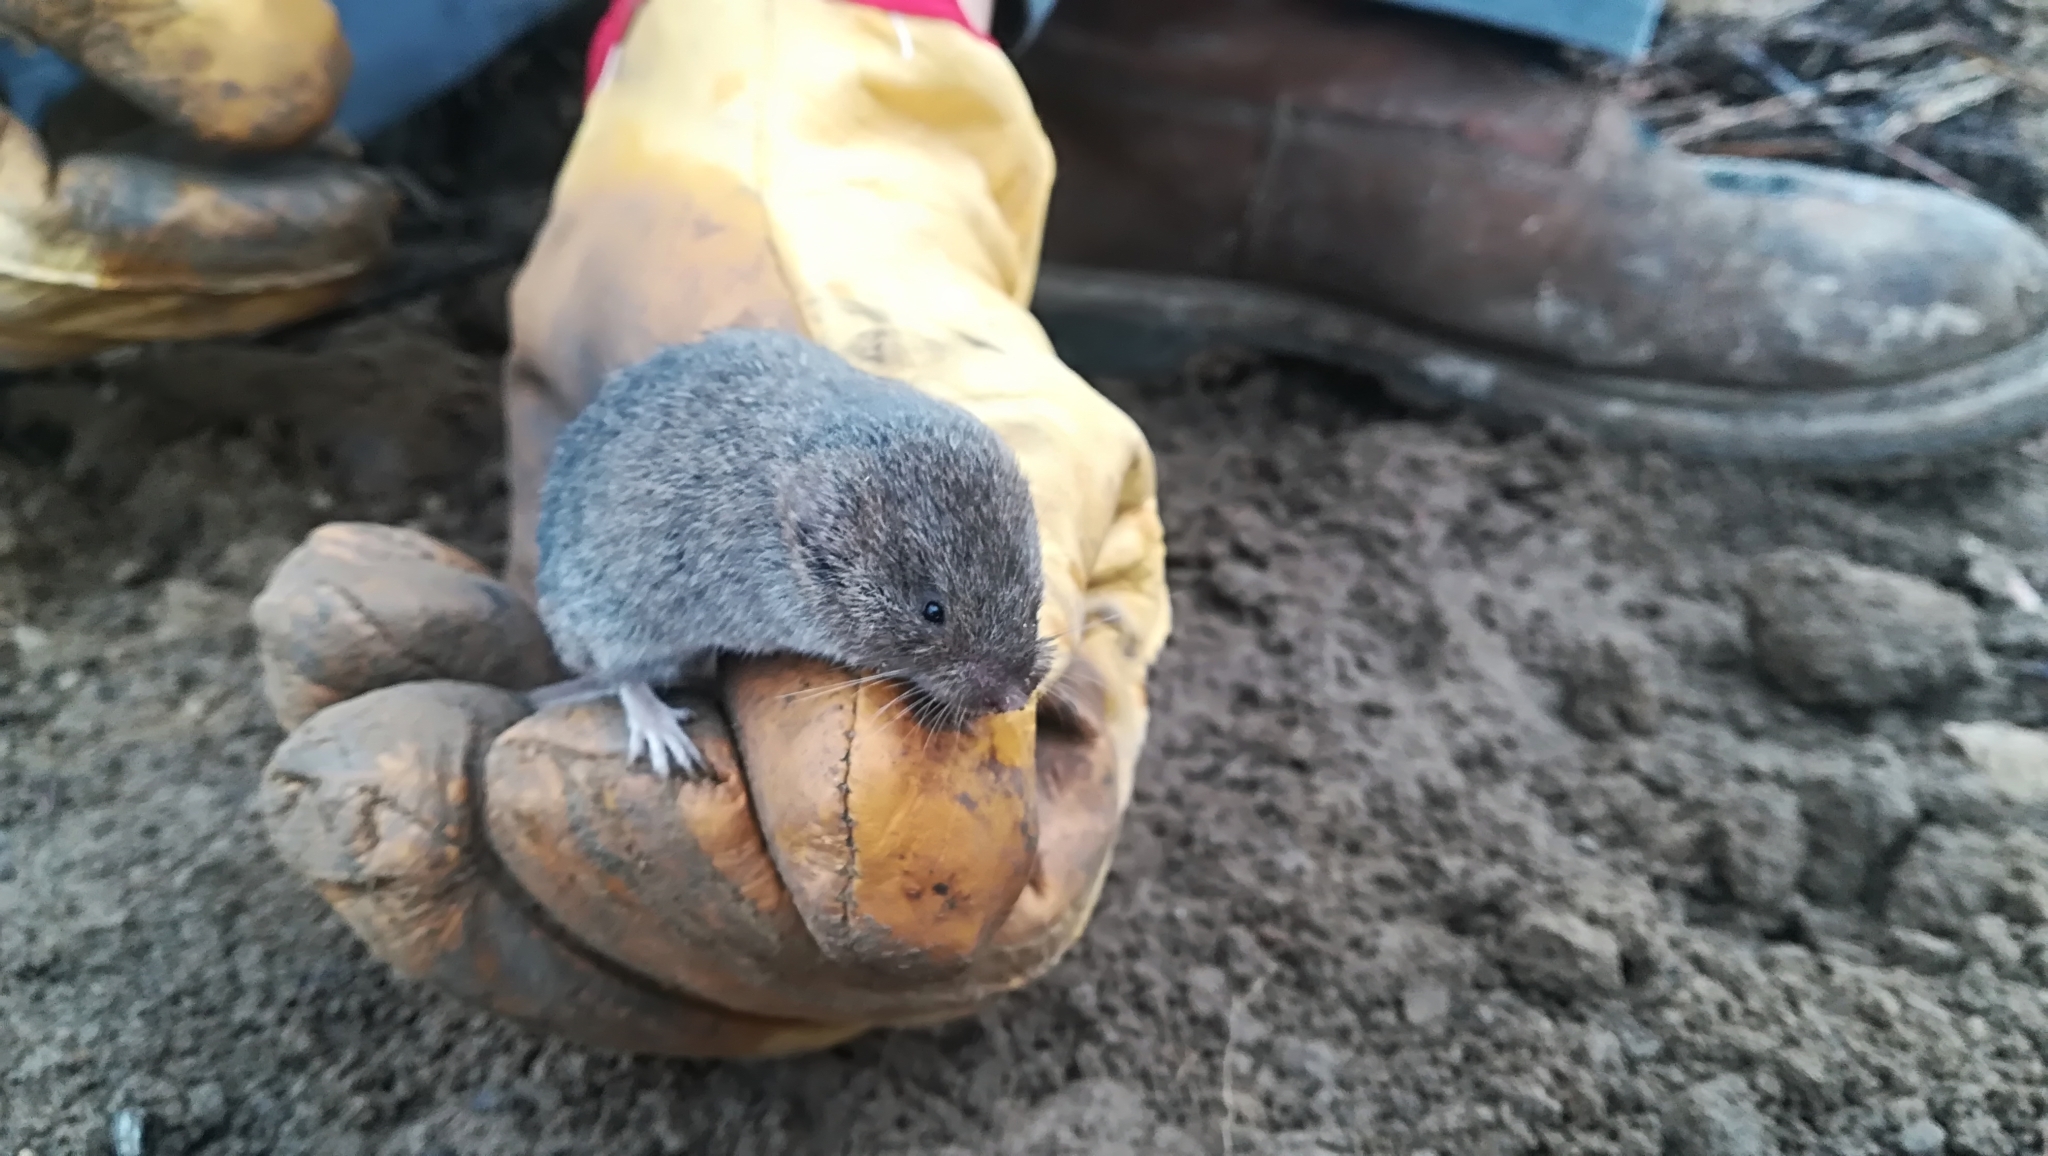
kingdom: Animalia
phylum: Chordata
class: Mammalia
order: Rodentia
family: Cricetidae
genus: Microtus
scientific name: Microtus savii
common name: Savi's pine vole
